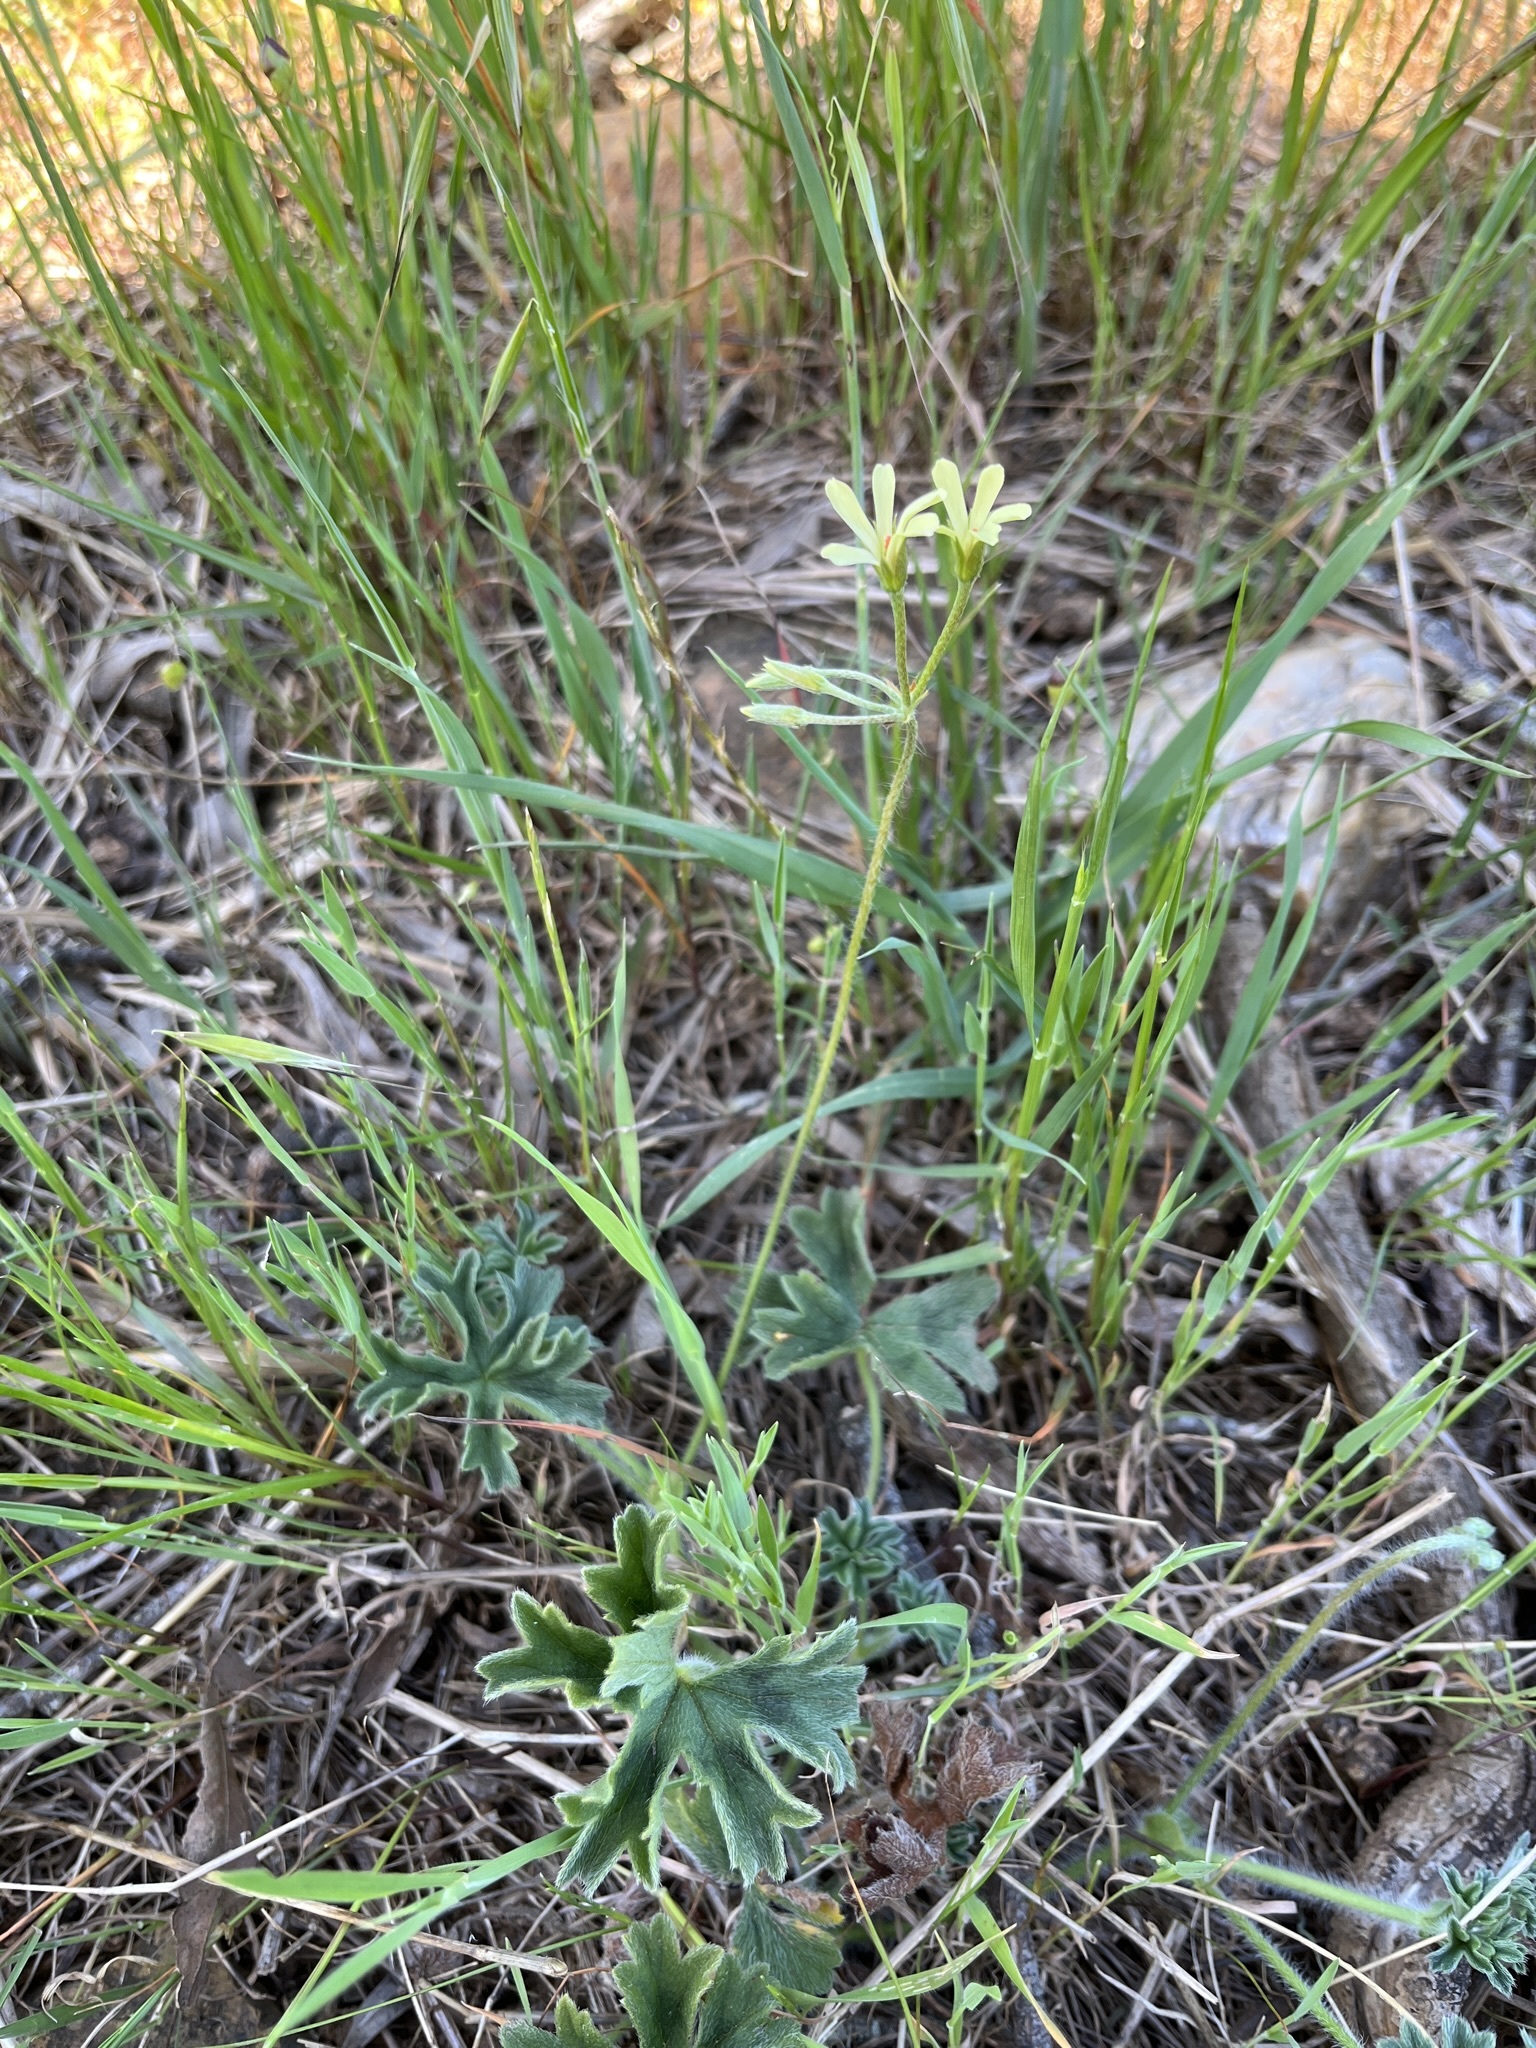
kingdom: Plantae
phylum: Tracheophyta
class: Magnoliopsida
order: Geraniales
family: Geraniaceae
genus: Pelargonium
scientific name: Pelargonium alchemilloides
